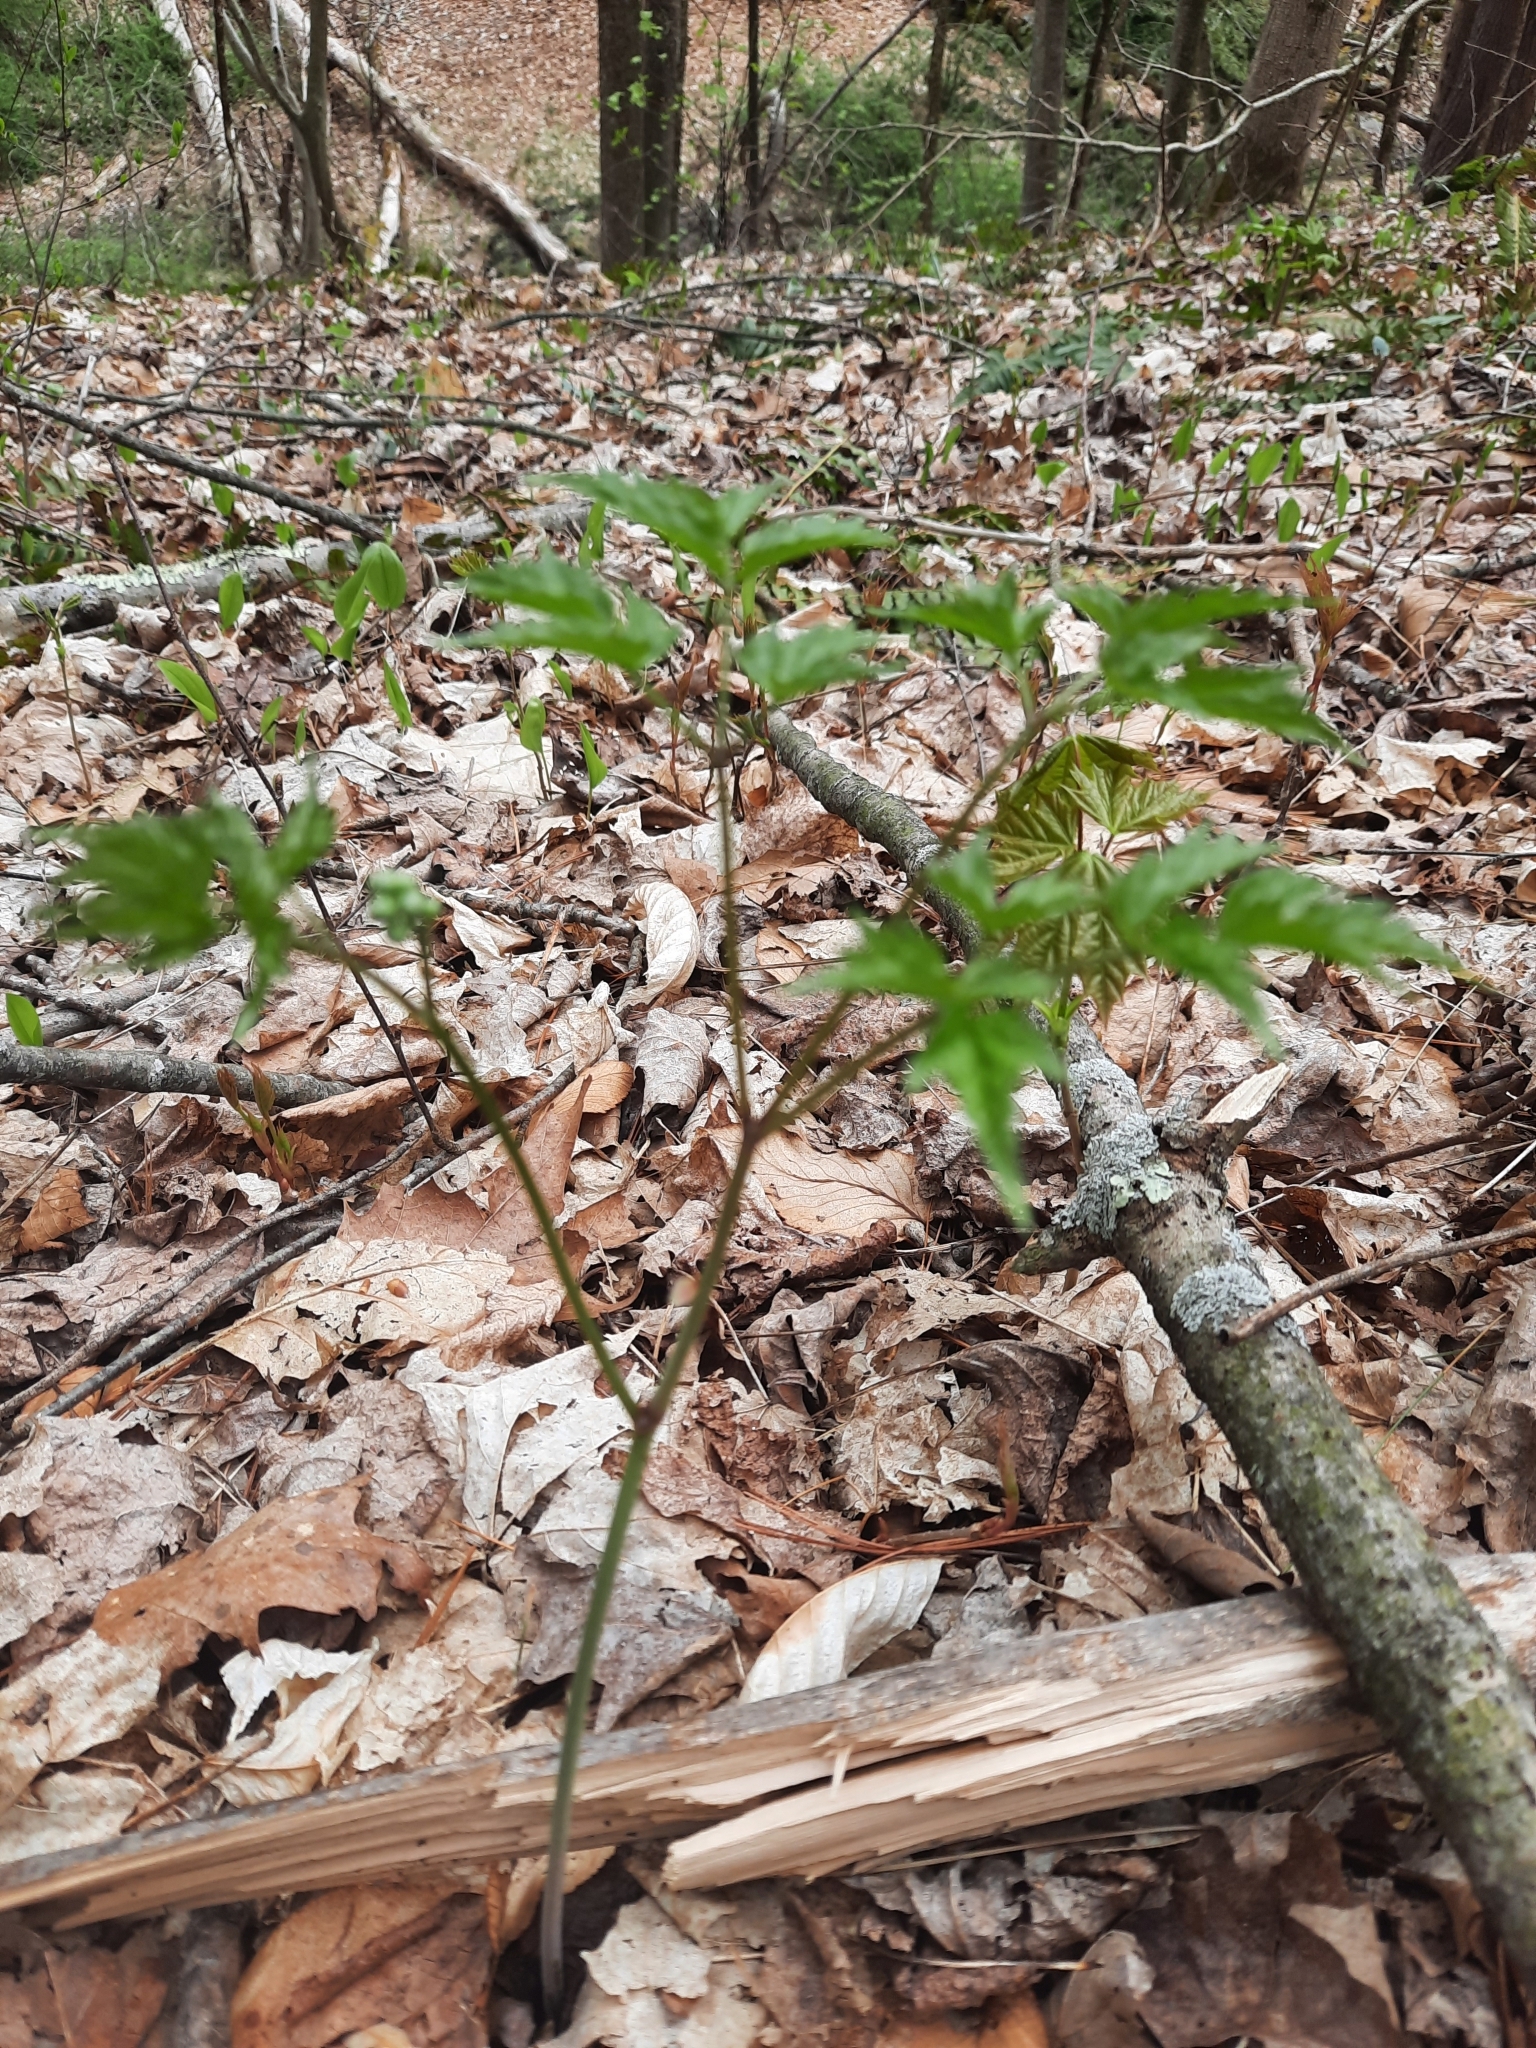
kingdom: Plantae
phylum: Tracheophyta
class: Magnoliopsida
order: Ranunculales
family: Ranunculaceae
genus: Actaea
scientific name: Actaea
